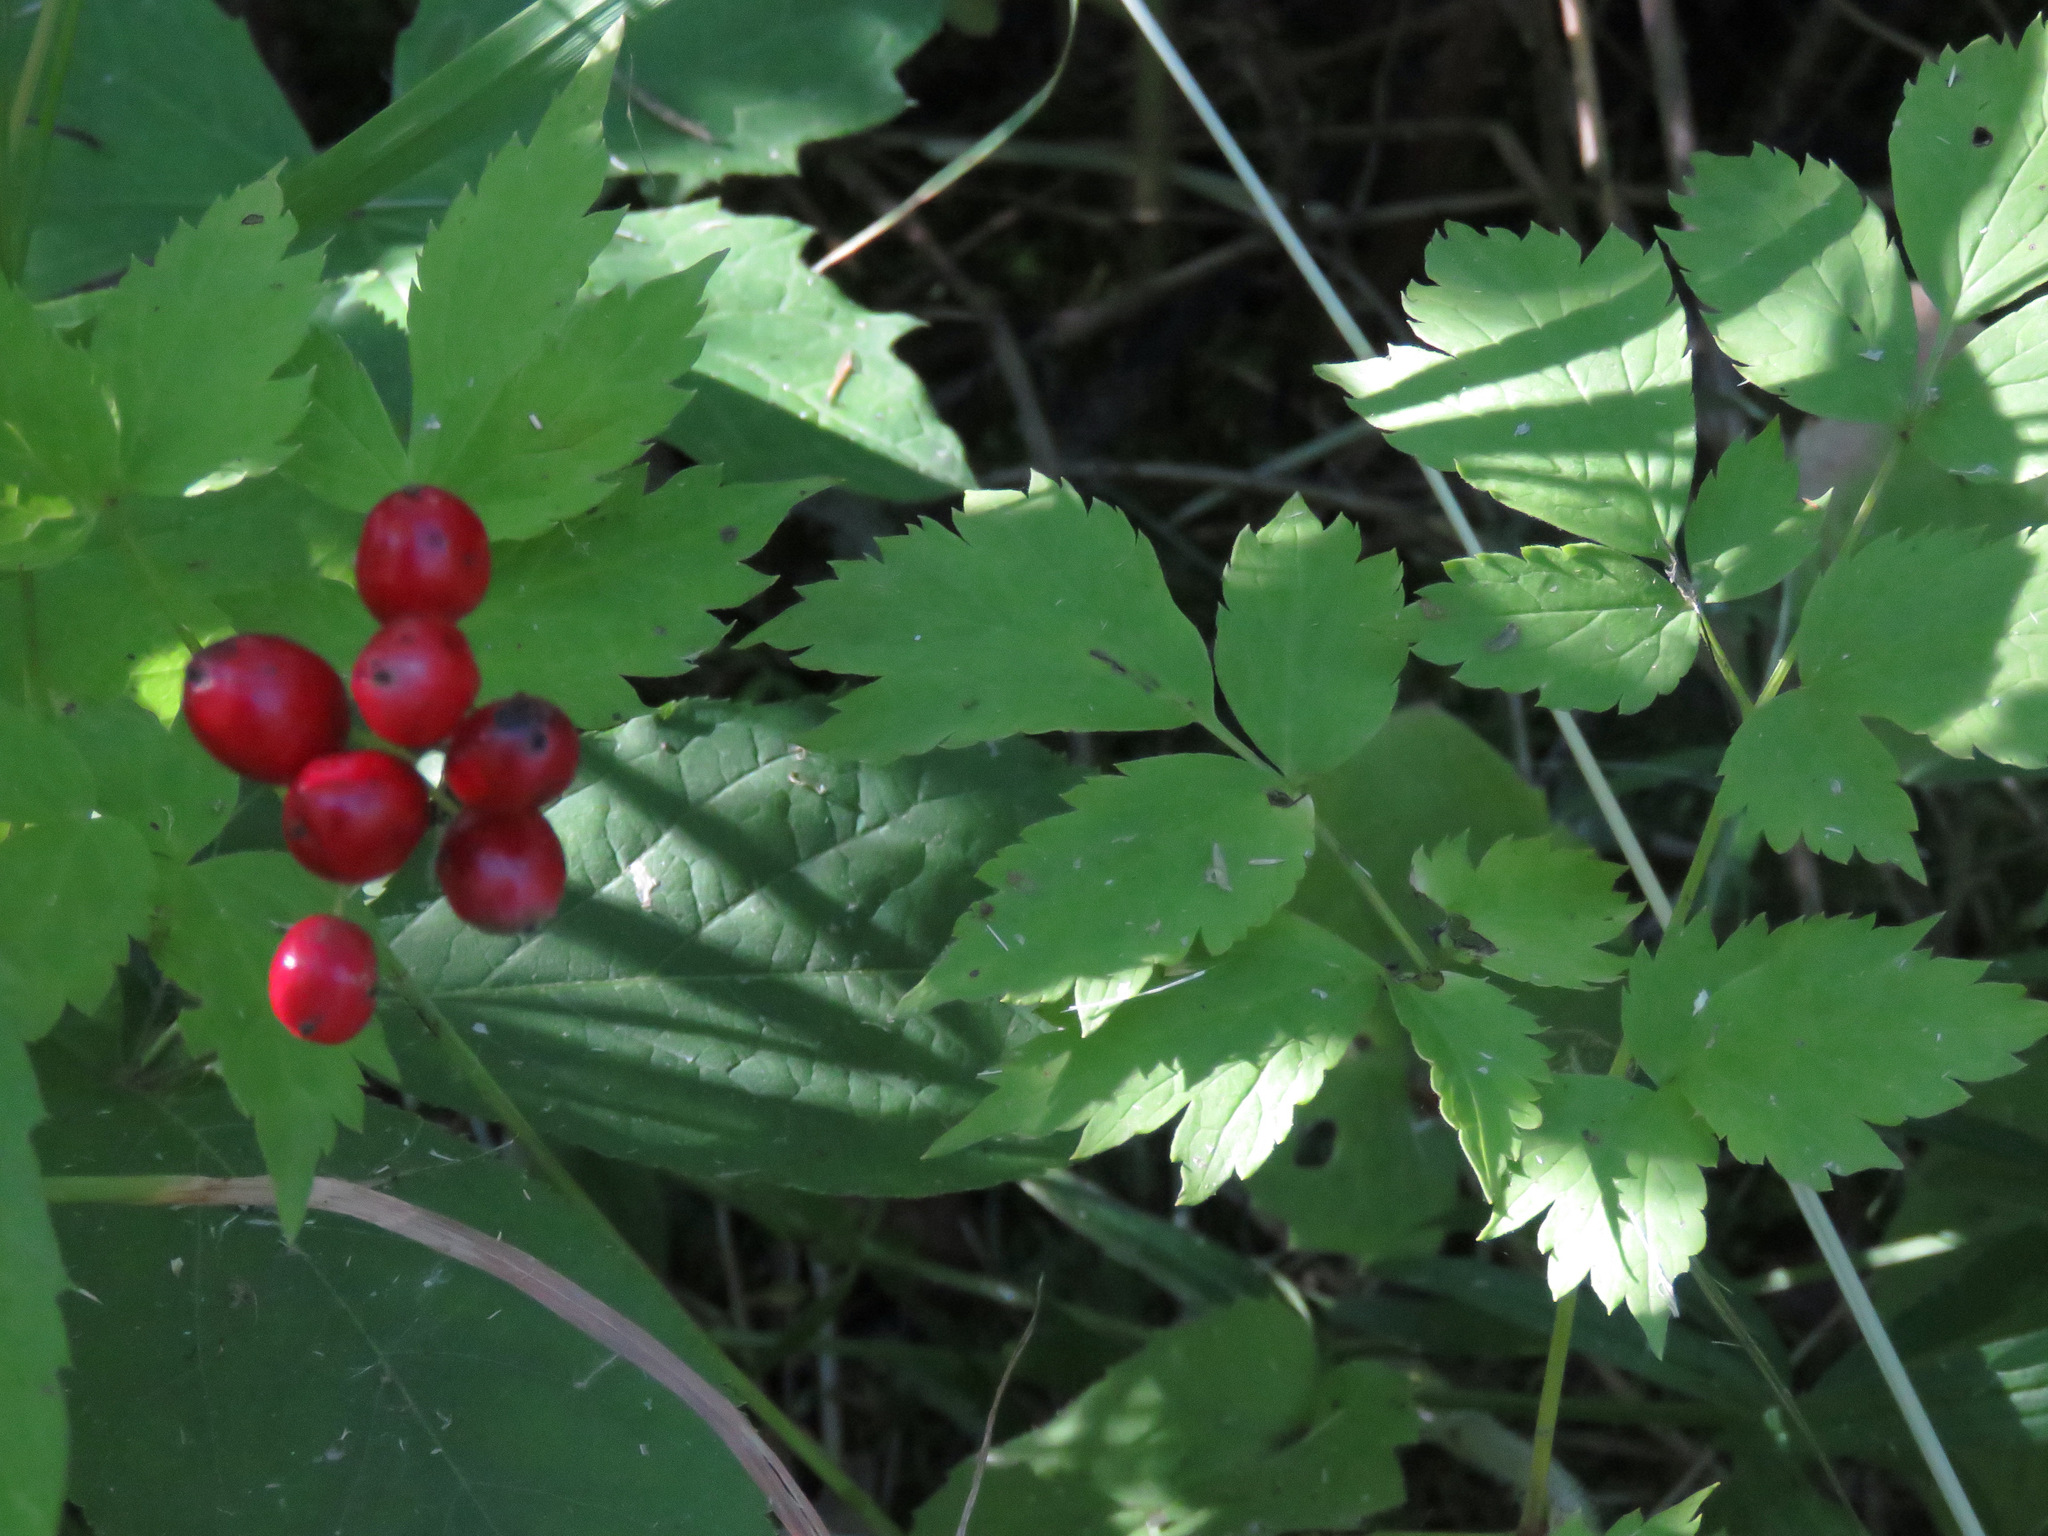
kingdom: Plantae
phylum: Tracheophyta
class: Magnoliopsida
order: Ranunculales
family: Ranunculaceae
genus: Actaea
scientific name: Actaea rubra
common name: Red baneberry
